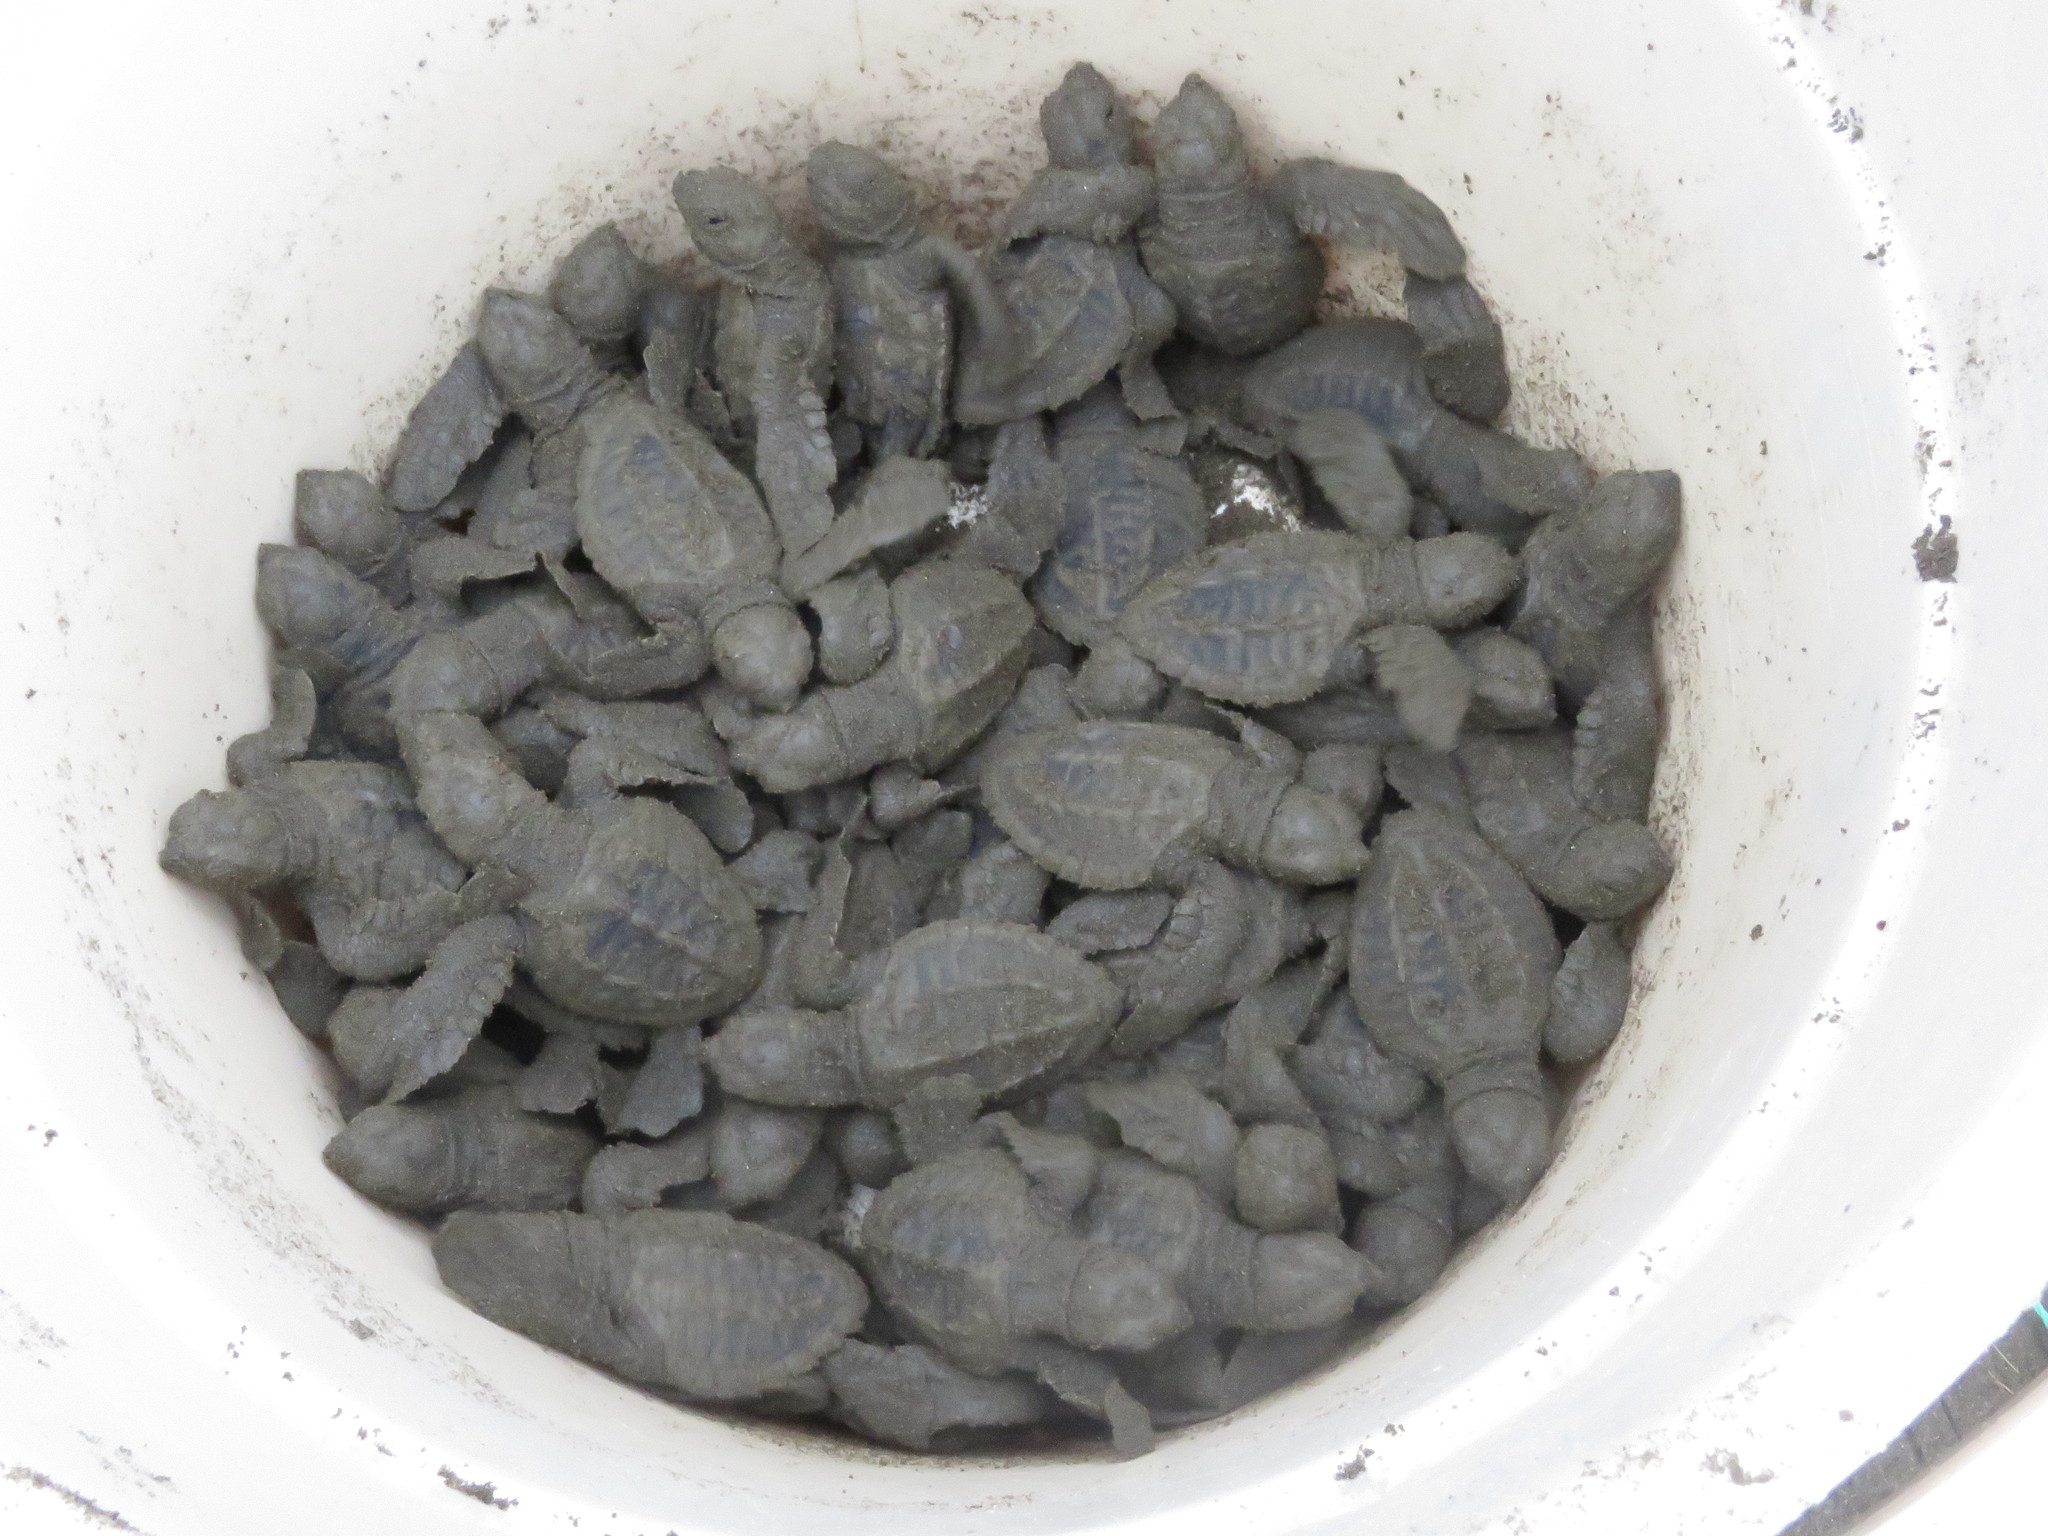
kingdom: Animalia
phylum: Chordata
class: Testudines
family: Cheloniidae
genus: Lepidochelys
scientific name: Lepidochelys olivacea
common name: Olive ridley
